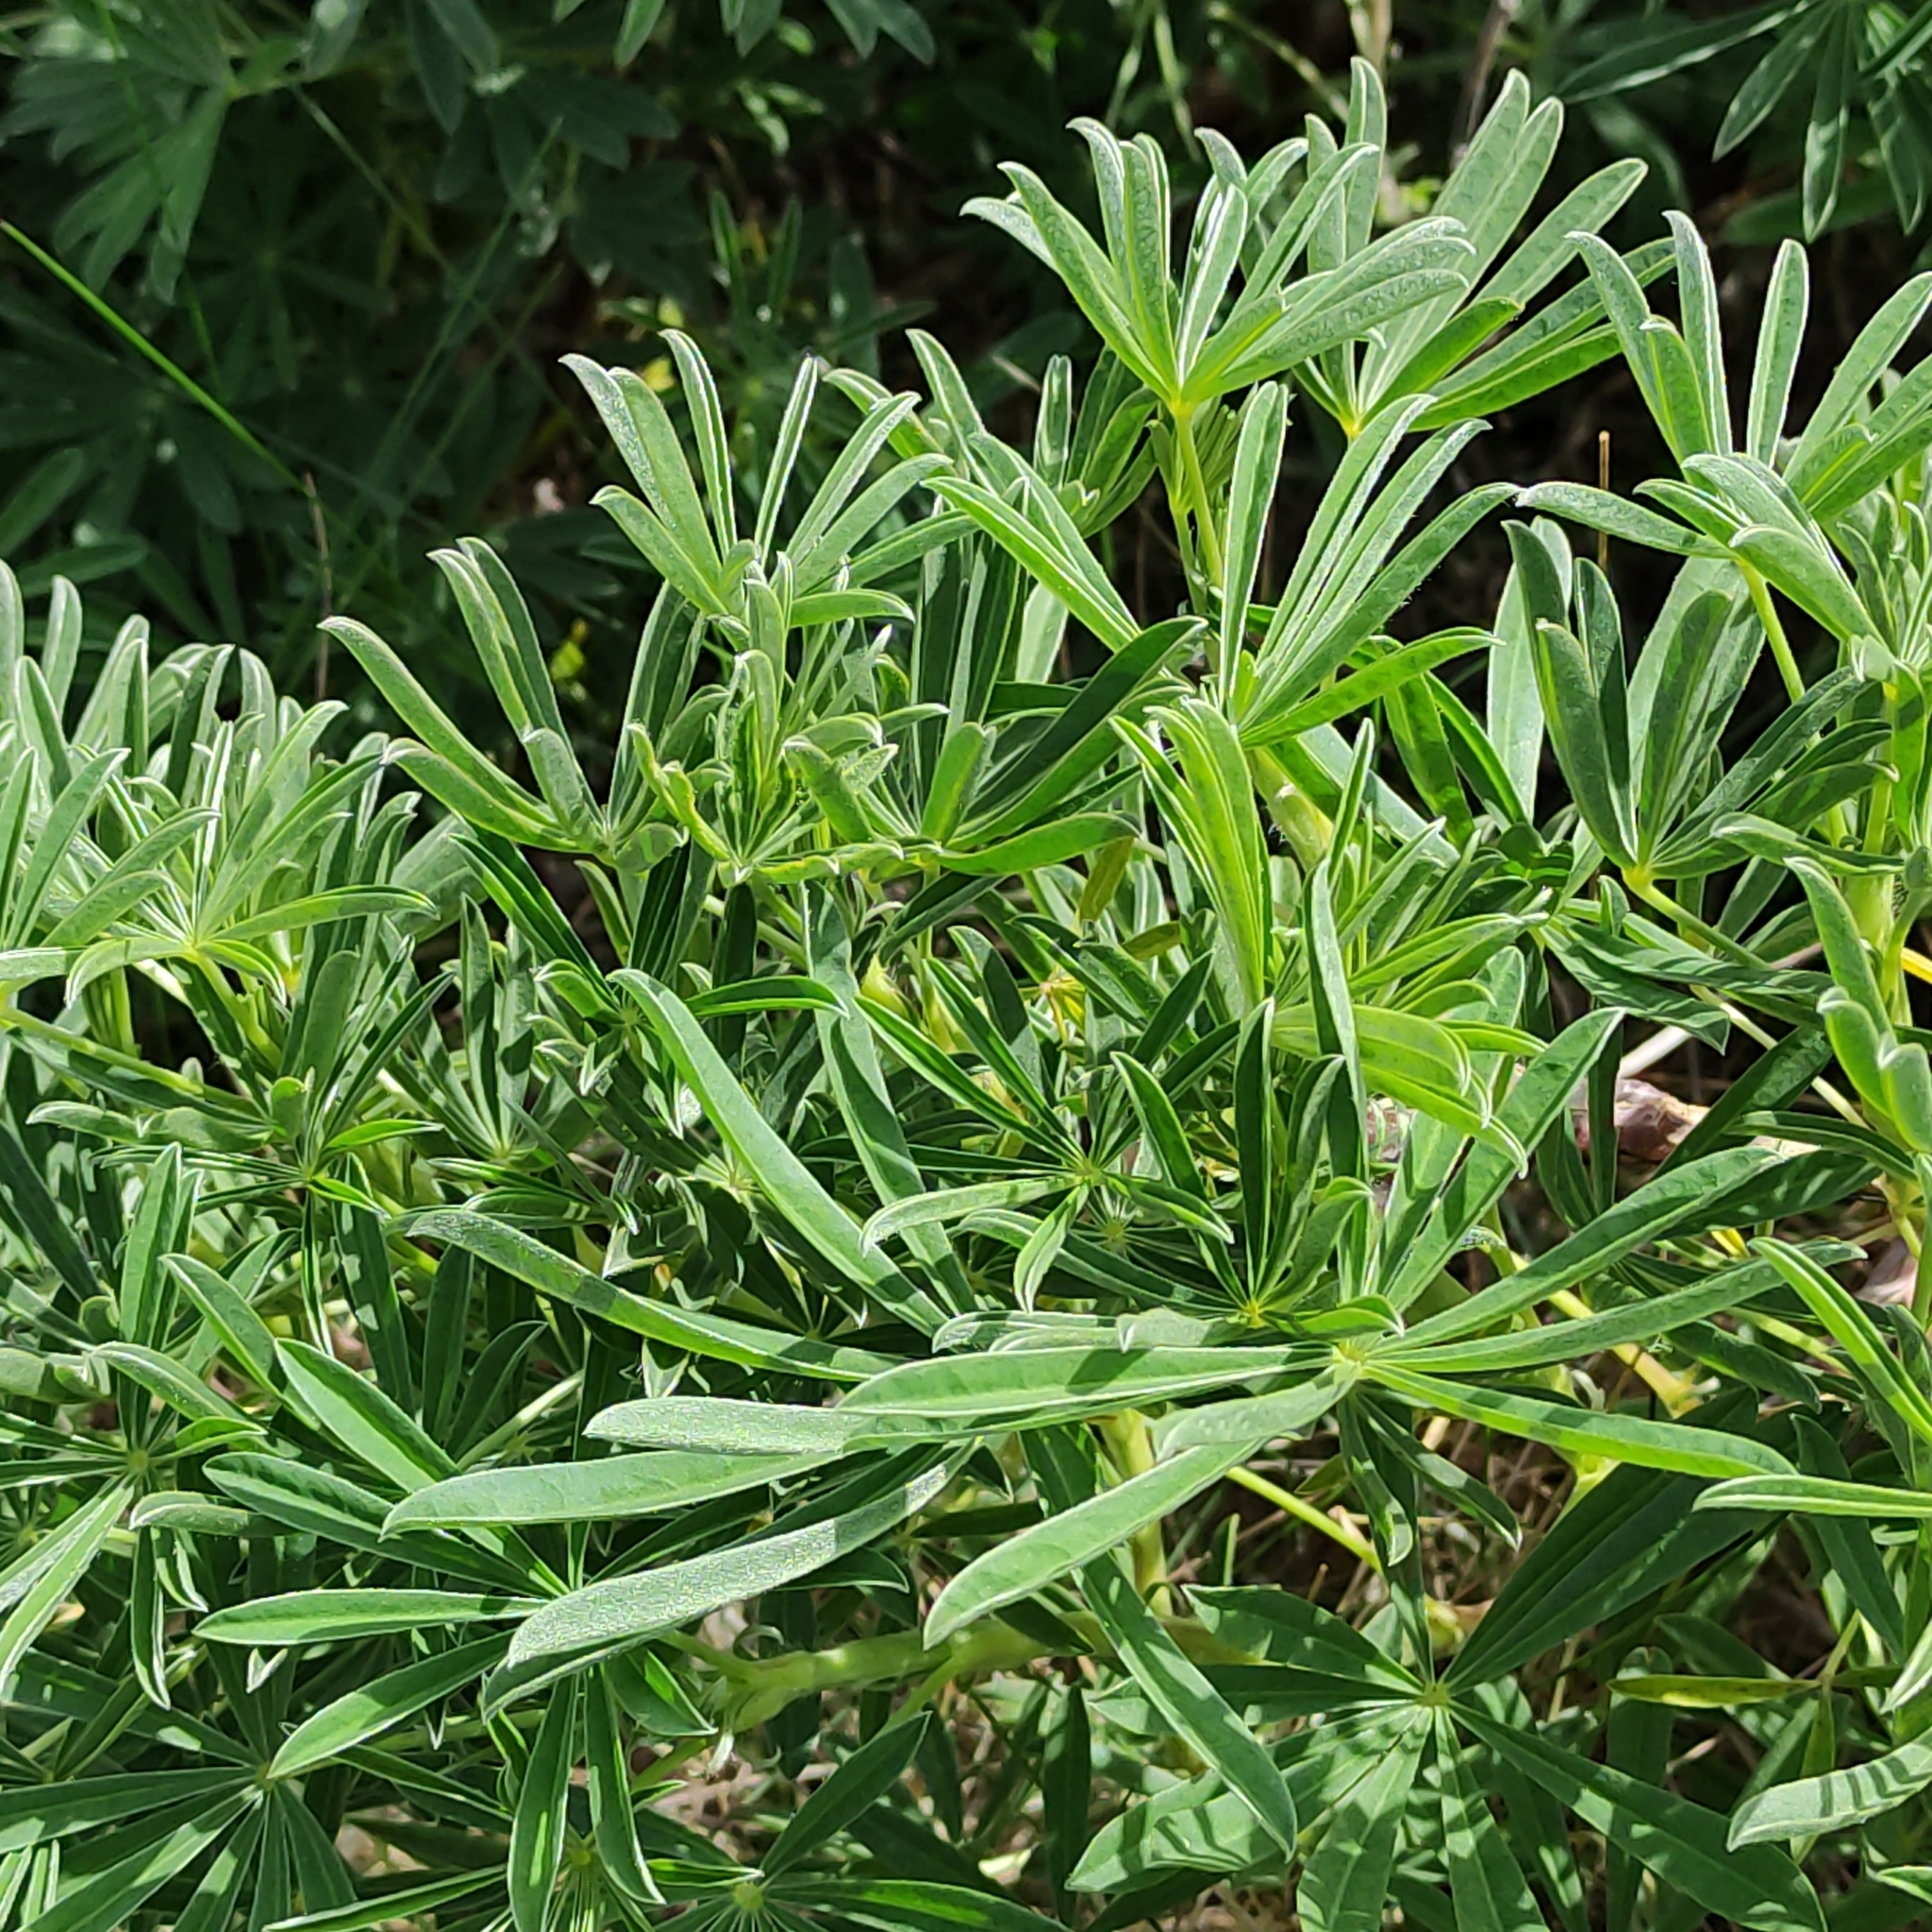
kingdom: Plantae
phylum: Tracheophyta
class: Magnoliopsida
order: Fabales
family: Fabaceae
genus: Lupinus
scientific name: Lupinus arboreus
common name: Yellow bush lupine
